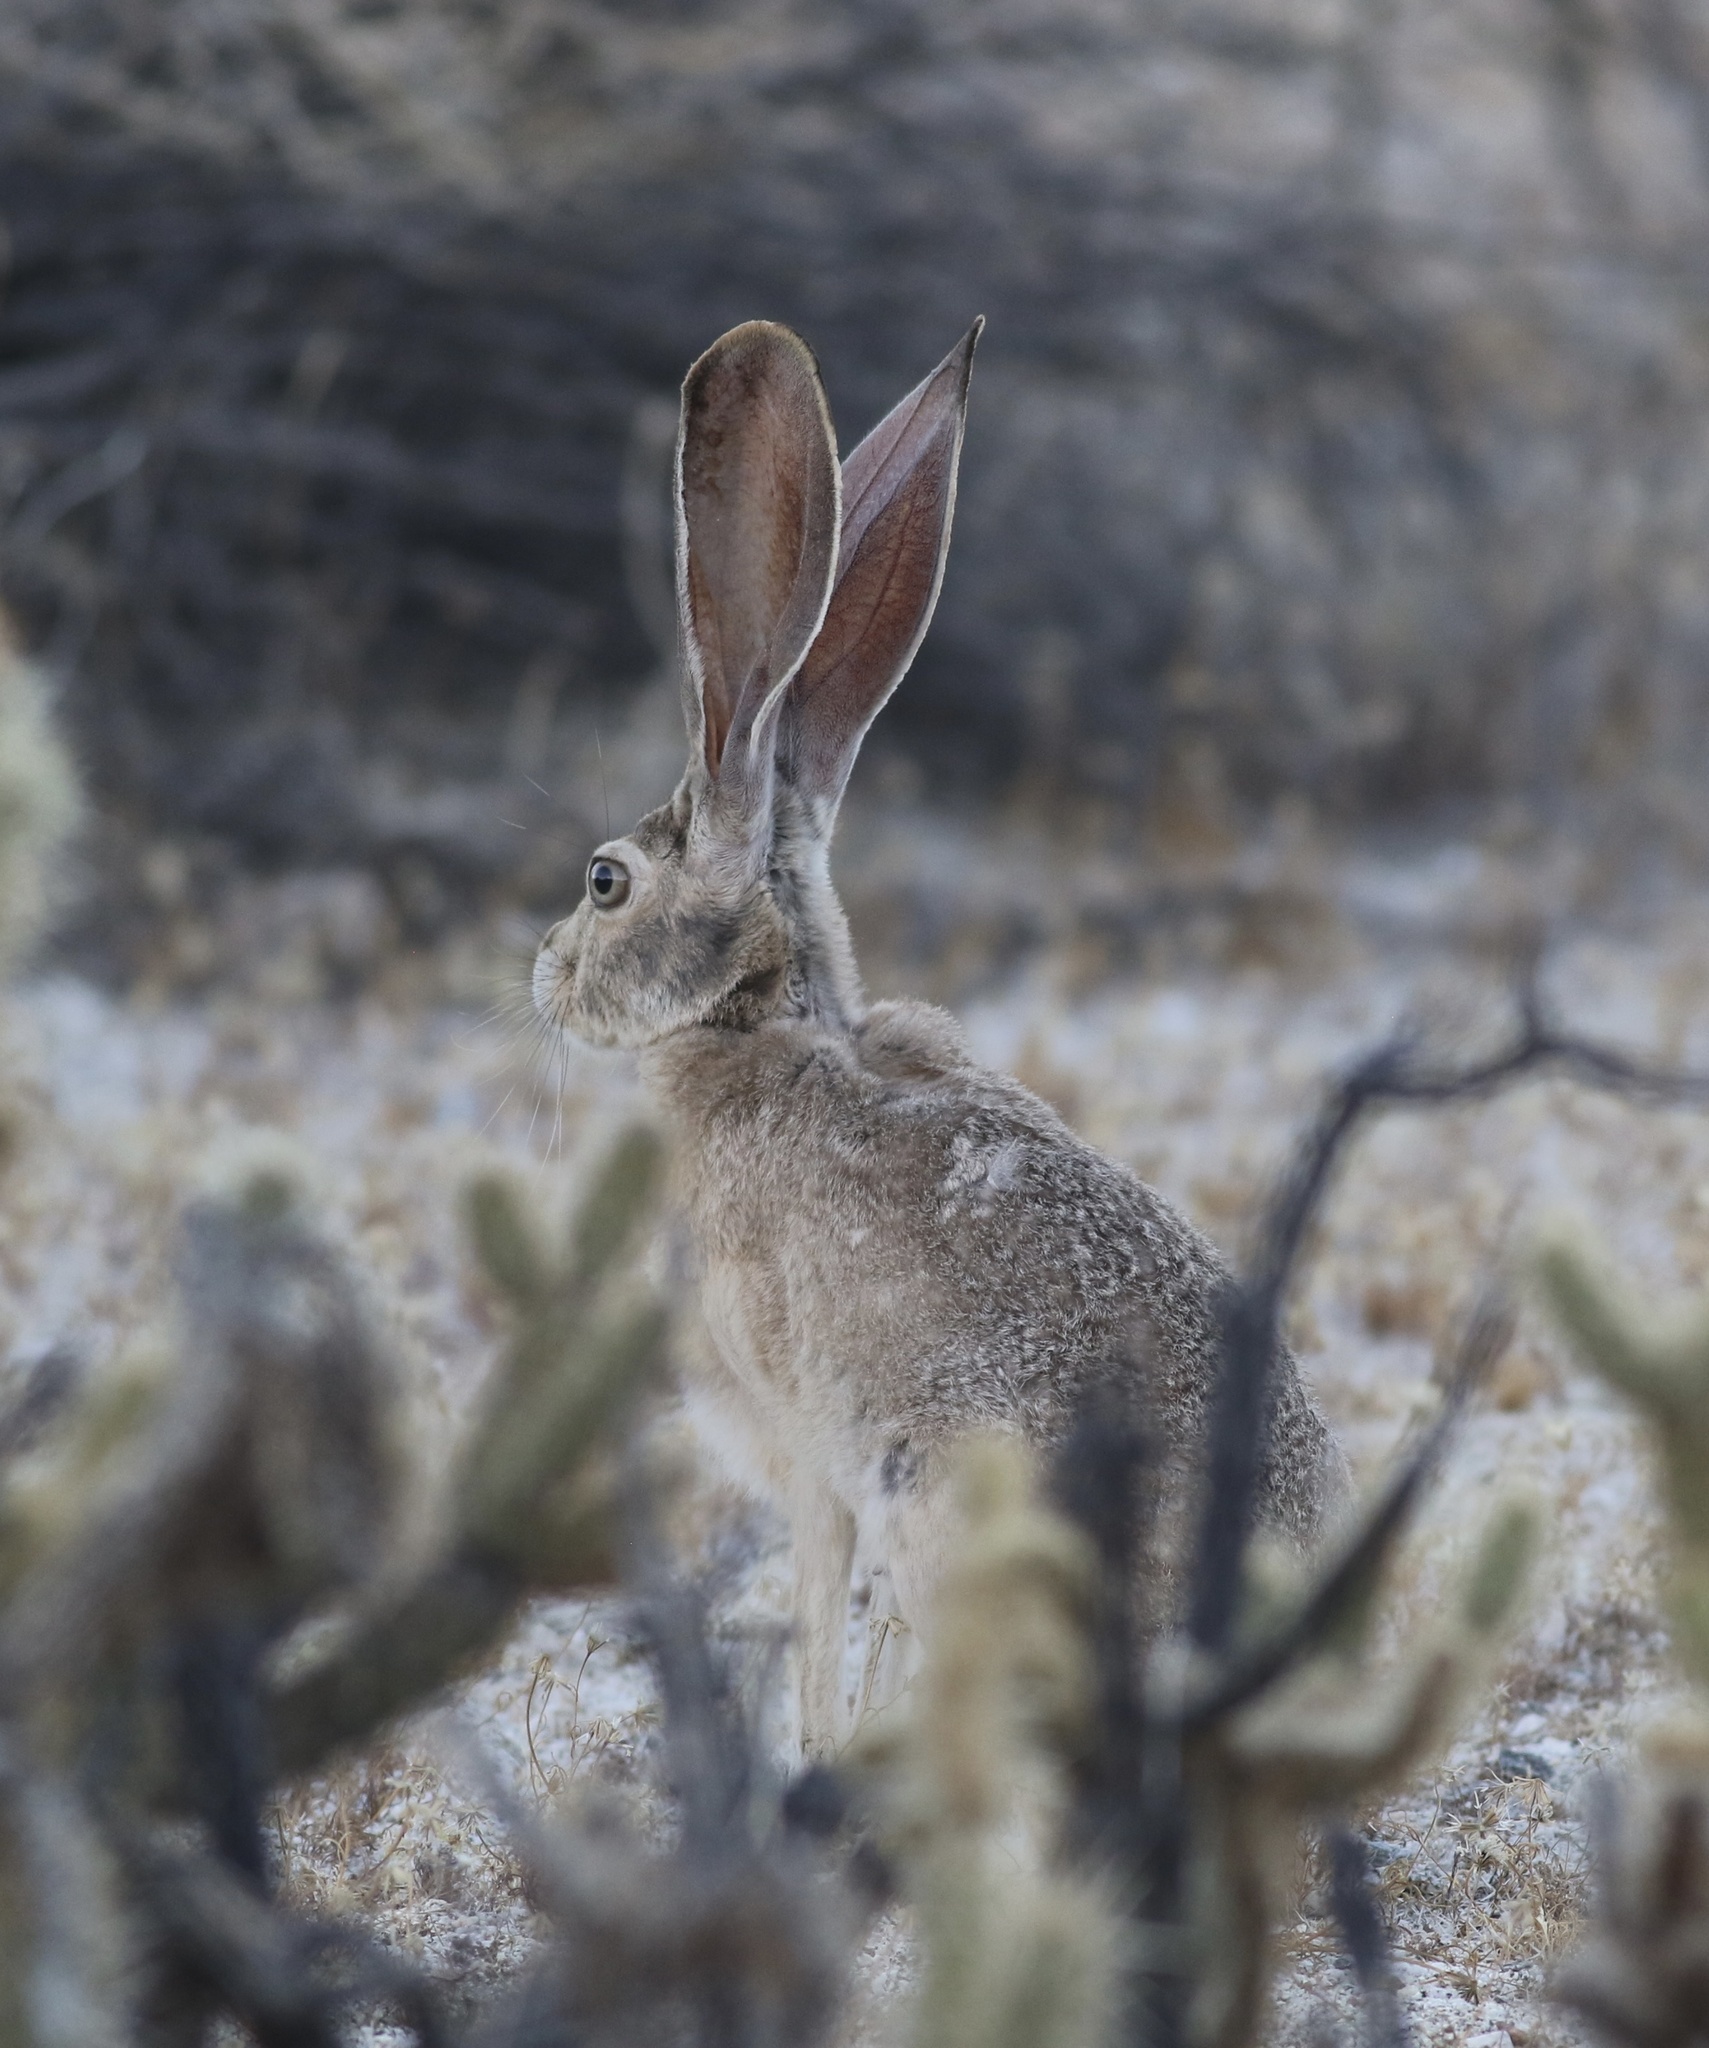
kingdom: Animalia
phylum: Chordata
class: Mammalia
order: Lagomorpha
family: Leporidae
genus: Lepus
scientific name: Lepus californicus
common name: Black-tailed jackrabbit
